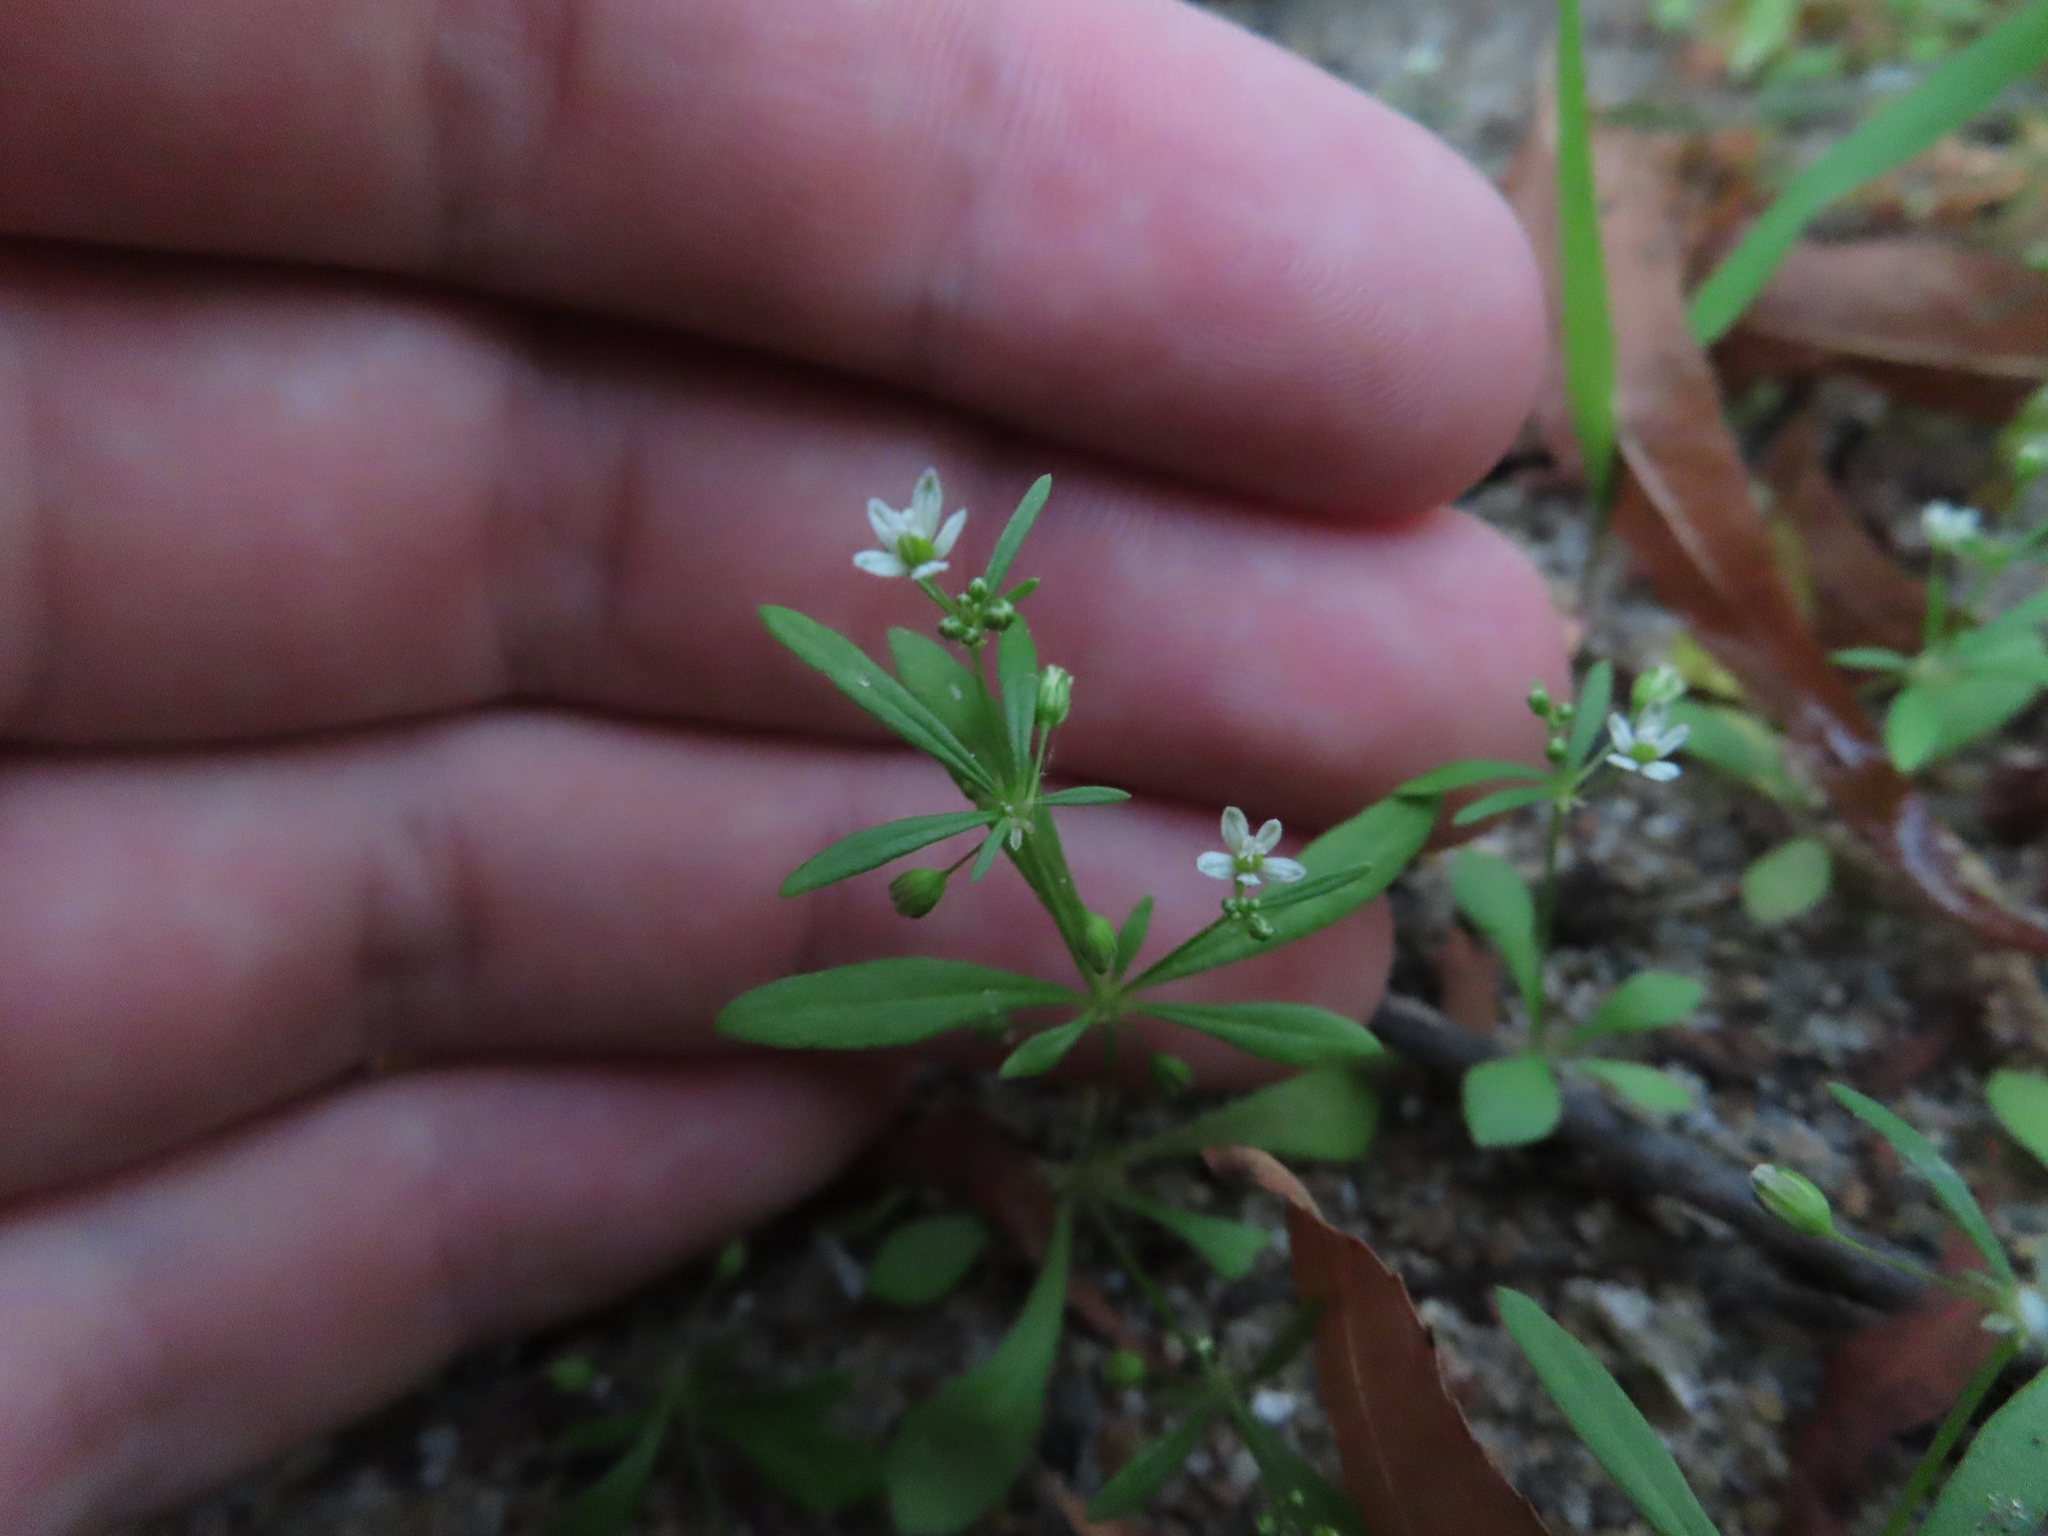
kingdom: Plantae
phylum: Tracheophyta
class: Magnoliopsida
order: Caryophyllales
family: Molluginaceae
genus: Mollugo
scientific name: Mollugo verticillata
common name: Green carpetweed
